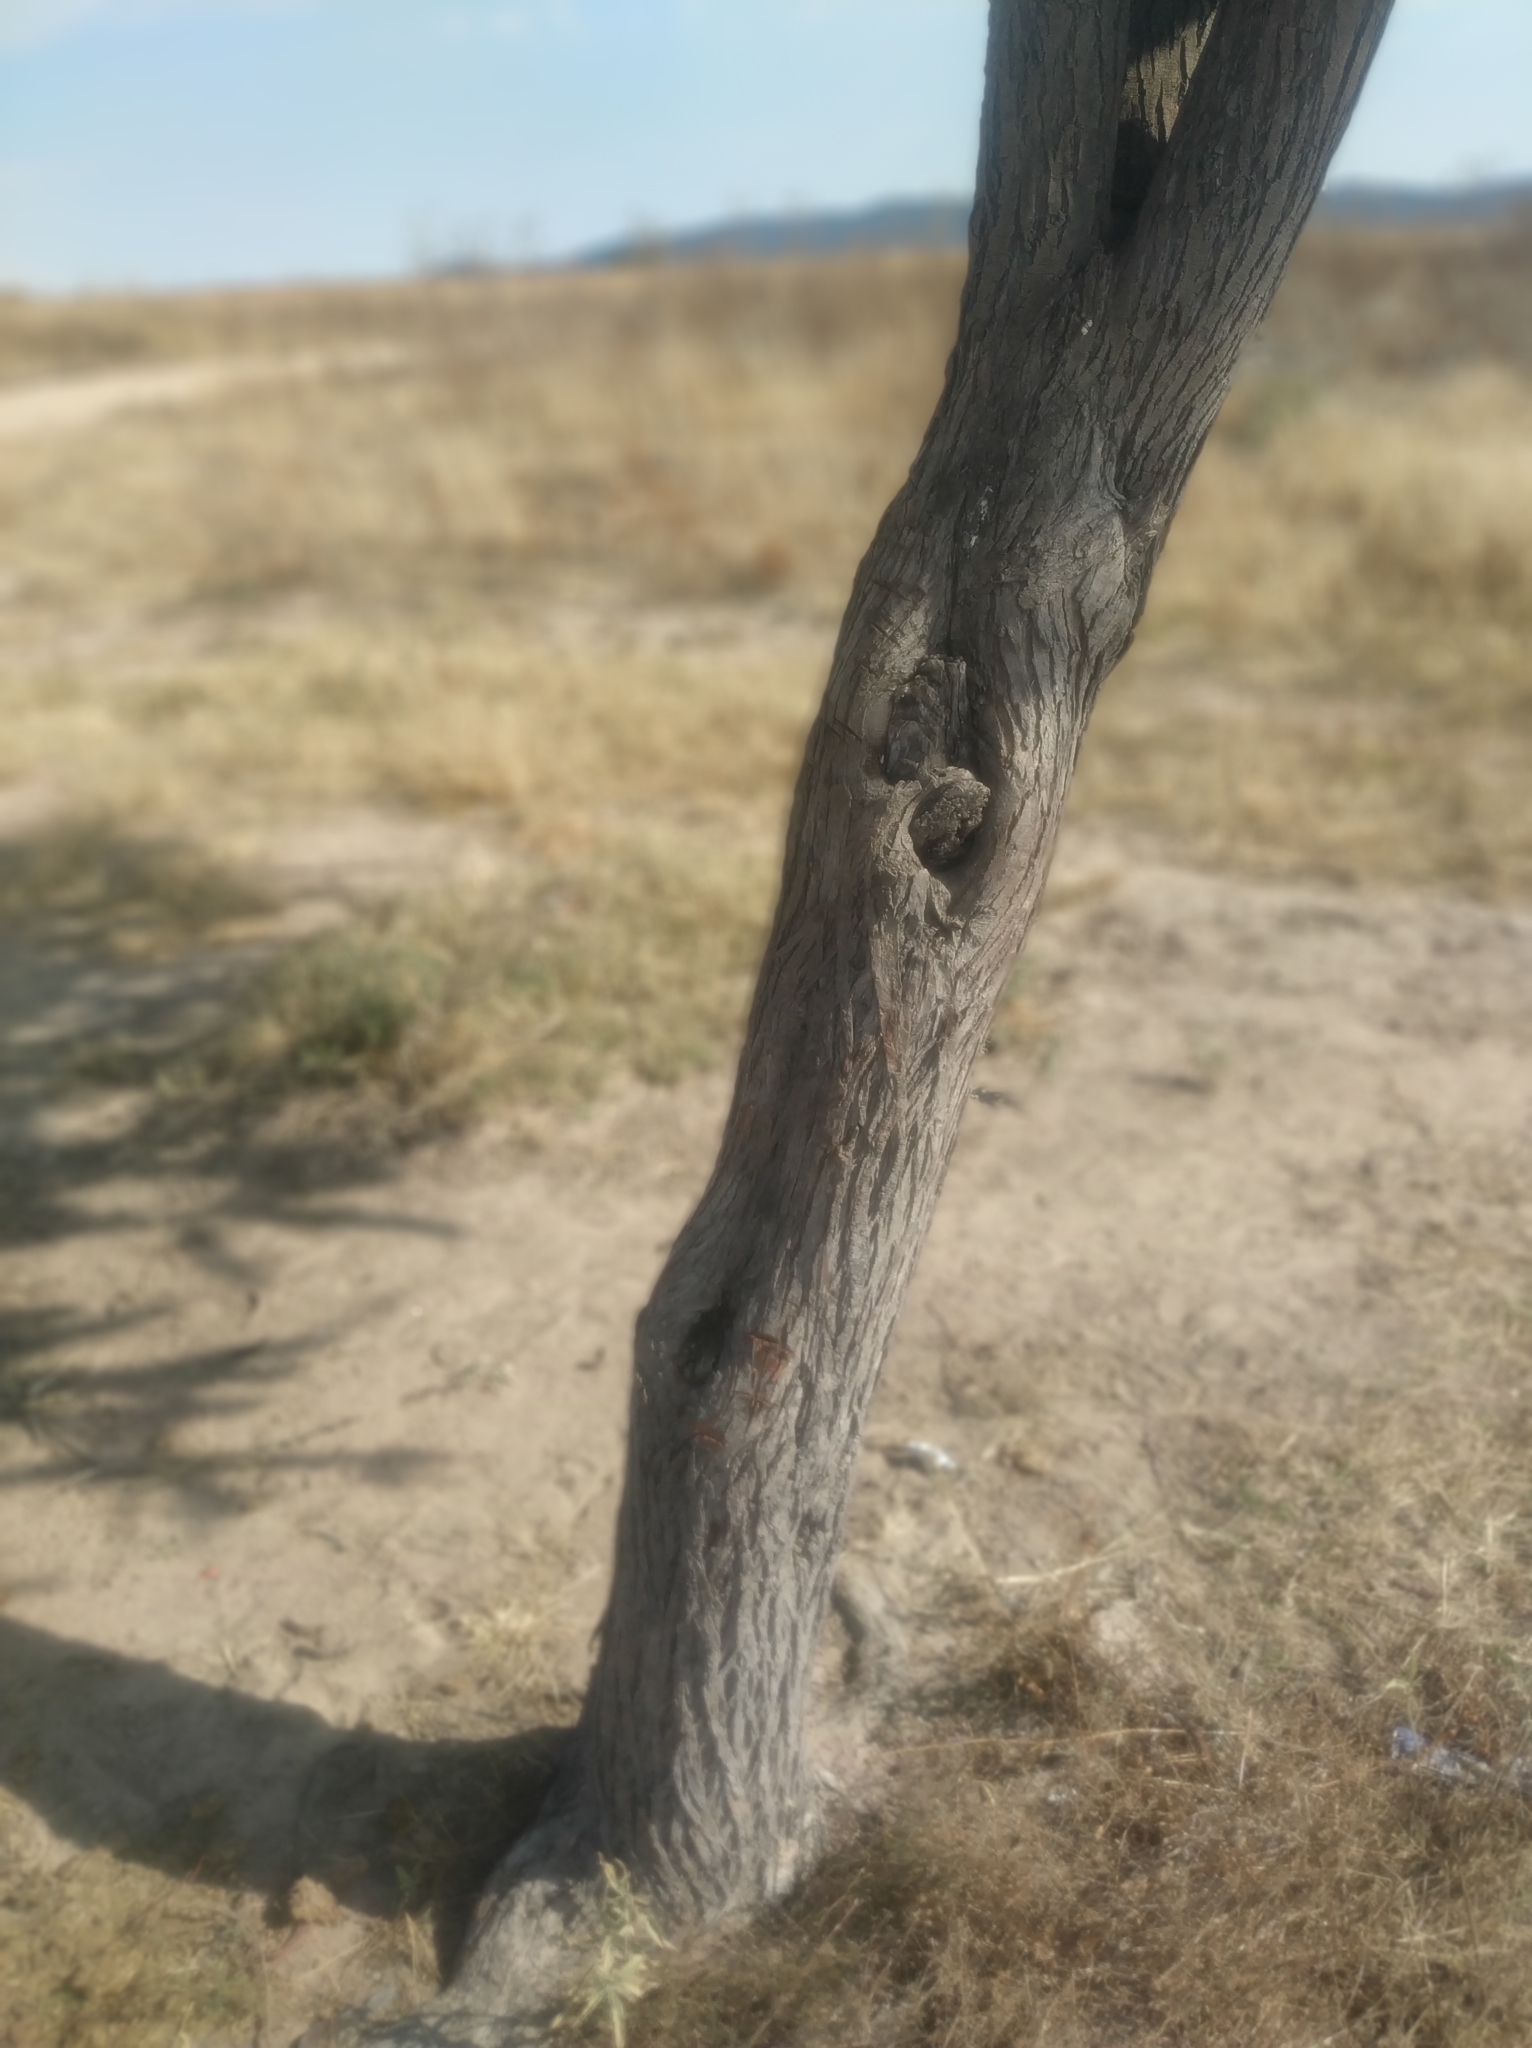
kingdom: Plantae
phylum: Tracheophyta
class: Magnoliopsida
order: Fabales
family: Fabaceae
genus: Vachellia
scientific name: Vachellia schaffneri
